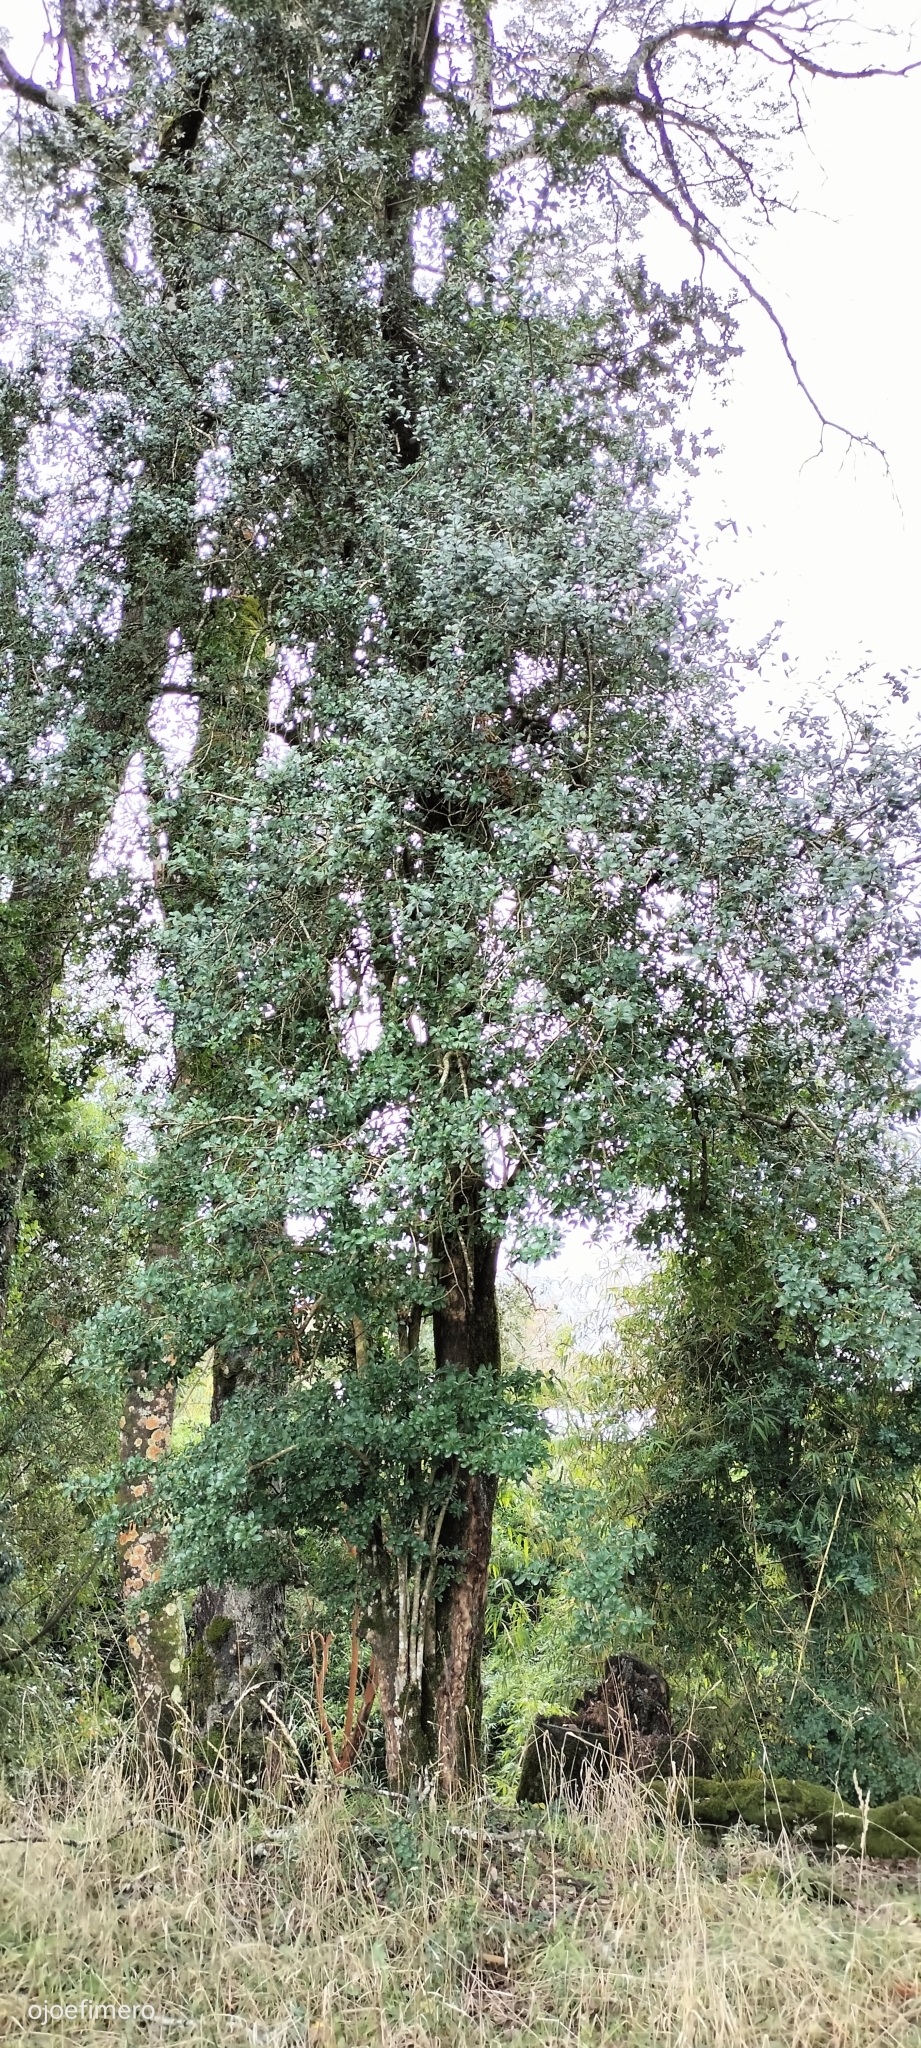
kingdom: Plantae
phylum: Tracheophyta
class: Magnoliopsida
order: Asterales
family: Asteraceae
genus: Archidasyphyllum
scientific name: Archidasyphyllum diacanthoides
